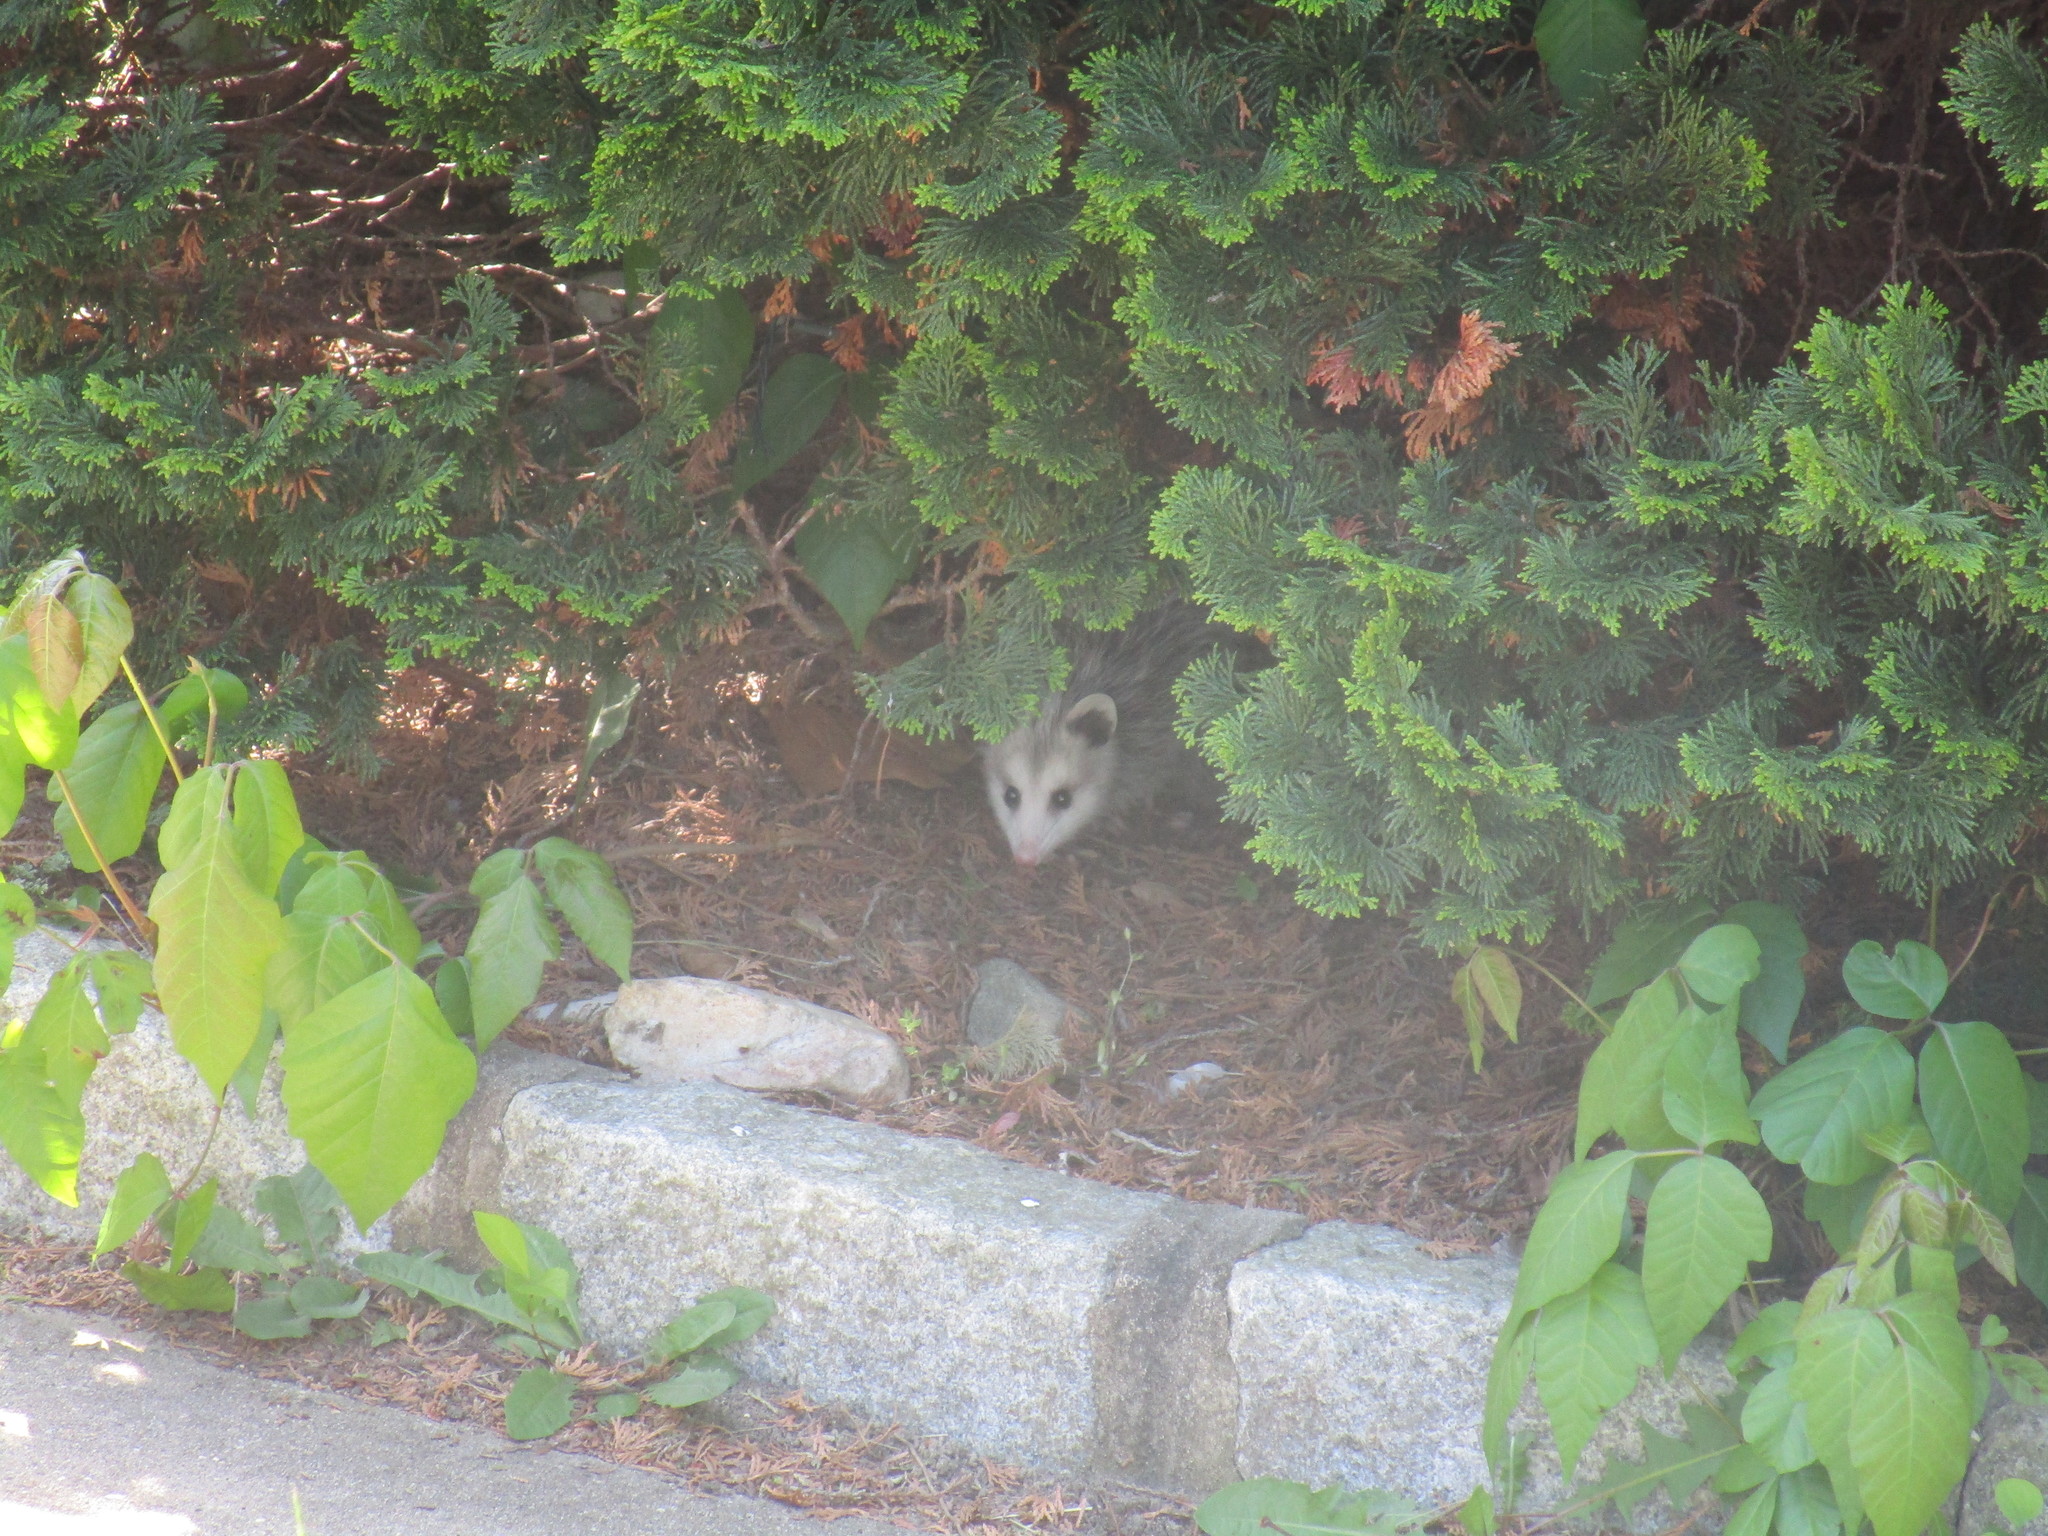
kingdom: Animalia
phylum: Chordata
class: Mammalia
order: Didelphimorphia
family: Didelphidae
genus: Didelphis
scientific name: Didelphis virginiana
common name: Virginia opossum
